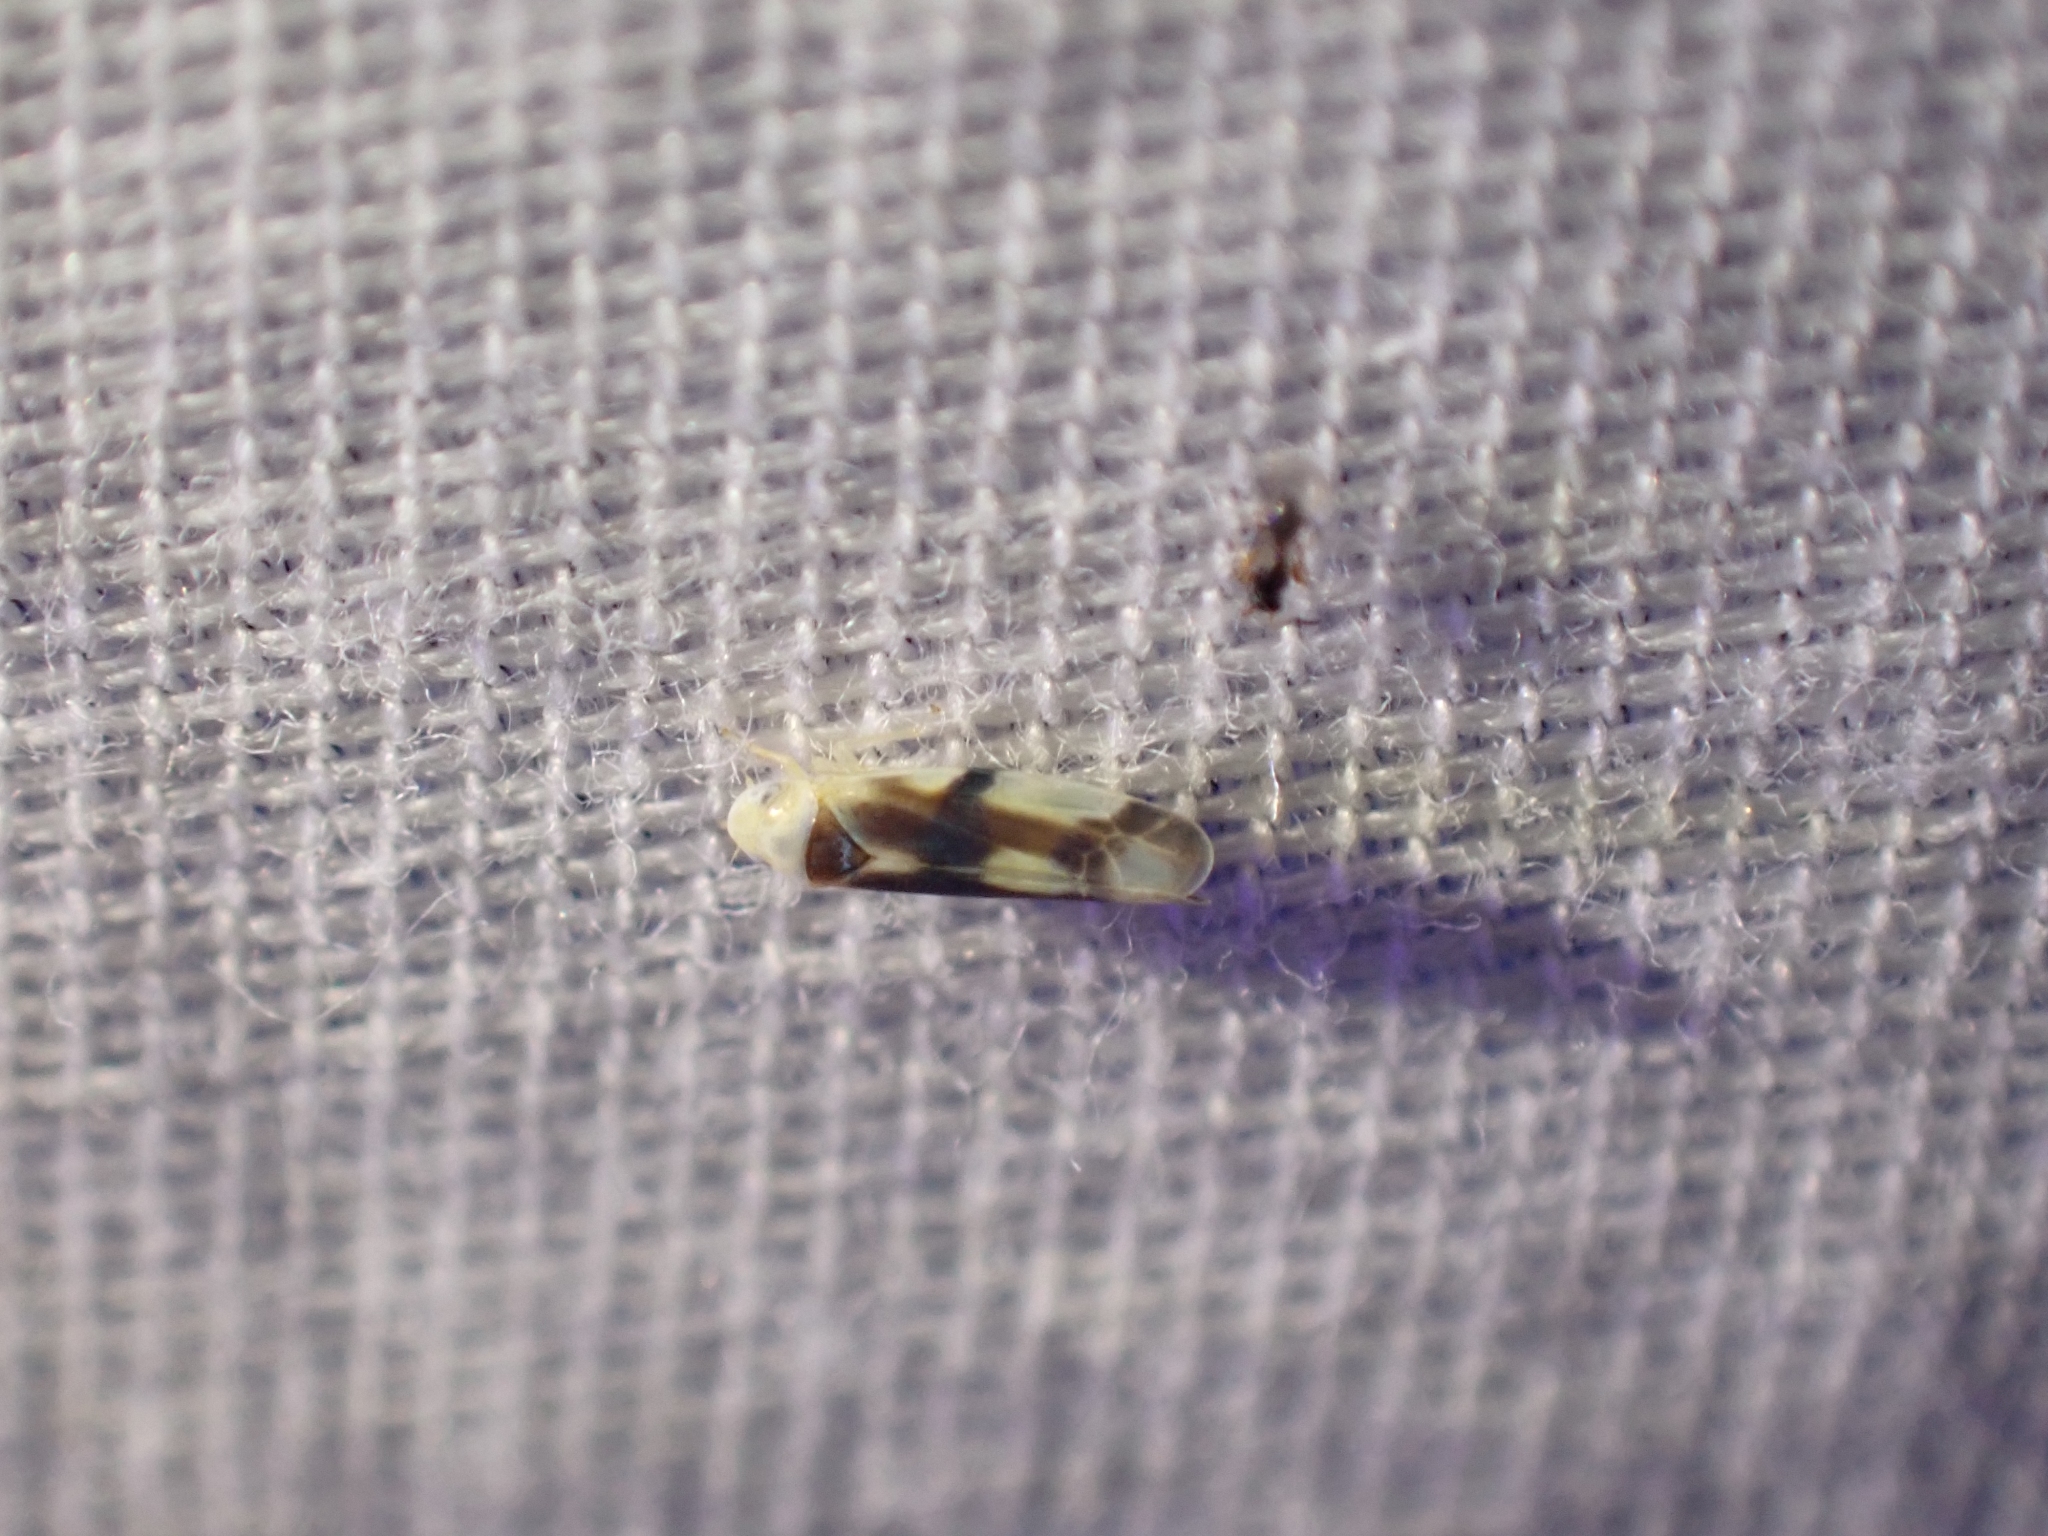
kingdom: Animalia
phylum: Arthropoda
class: Insecta
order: Hemiptera
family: Cicadellidae
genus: Empoa
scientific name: Empoa
